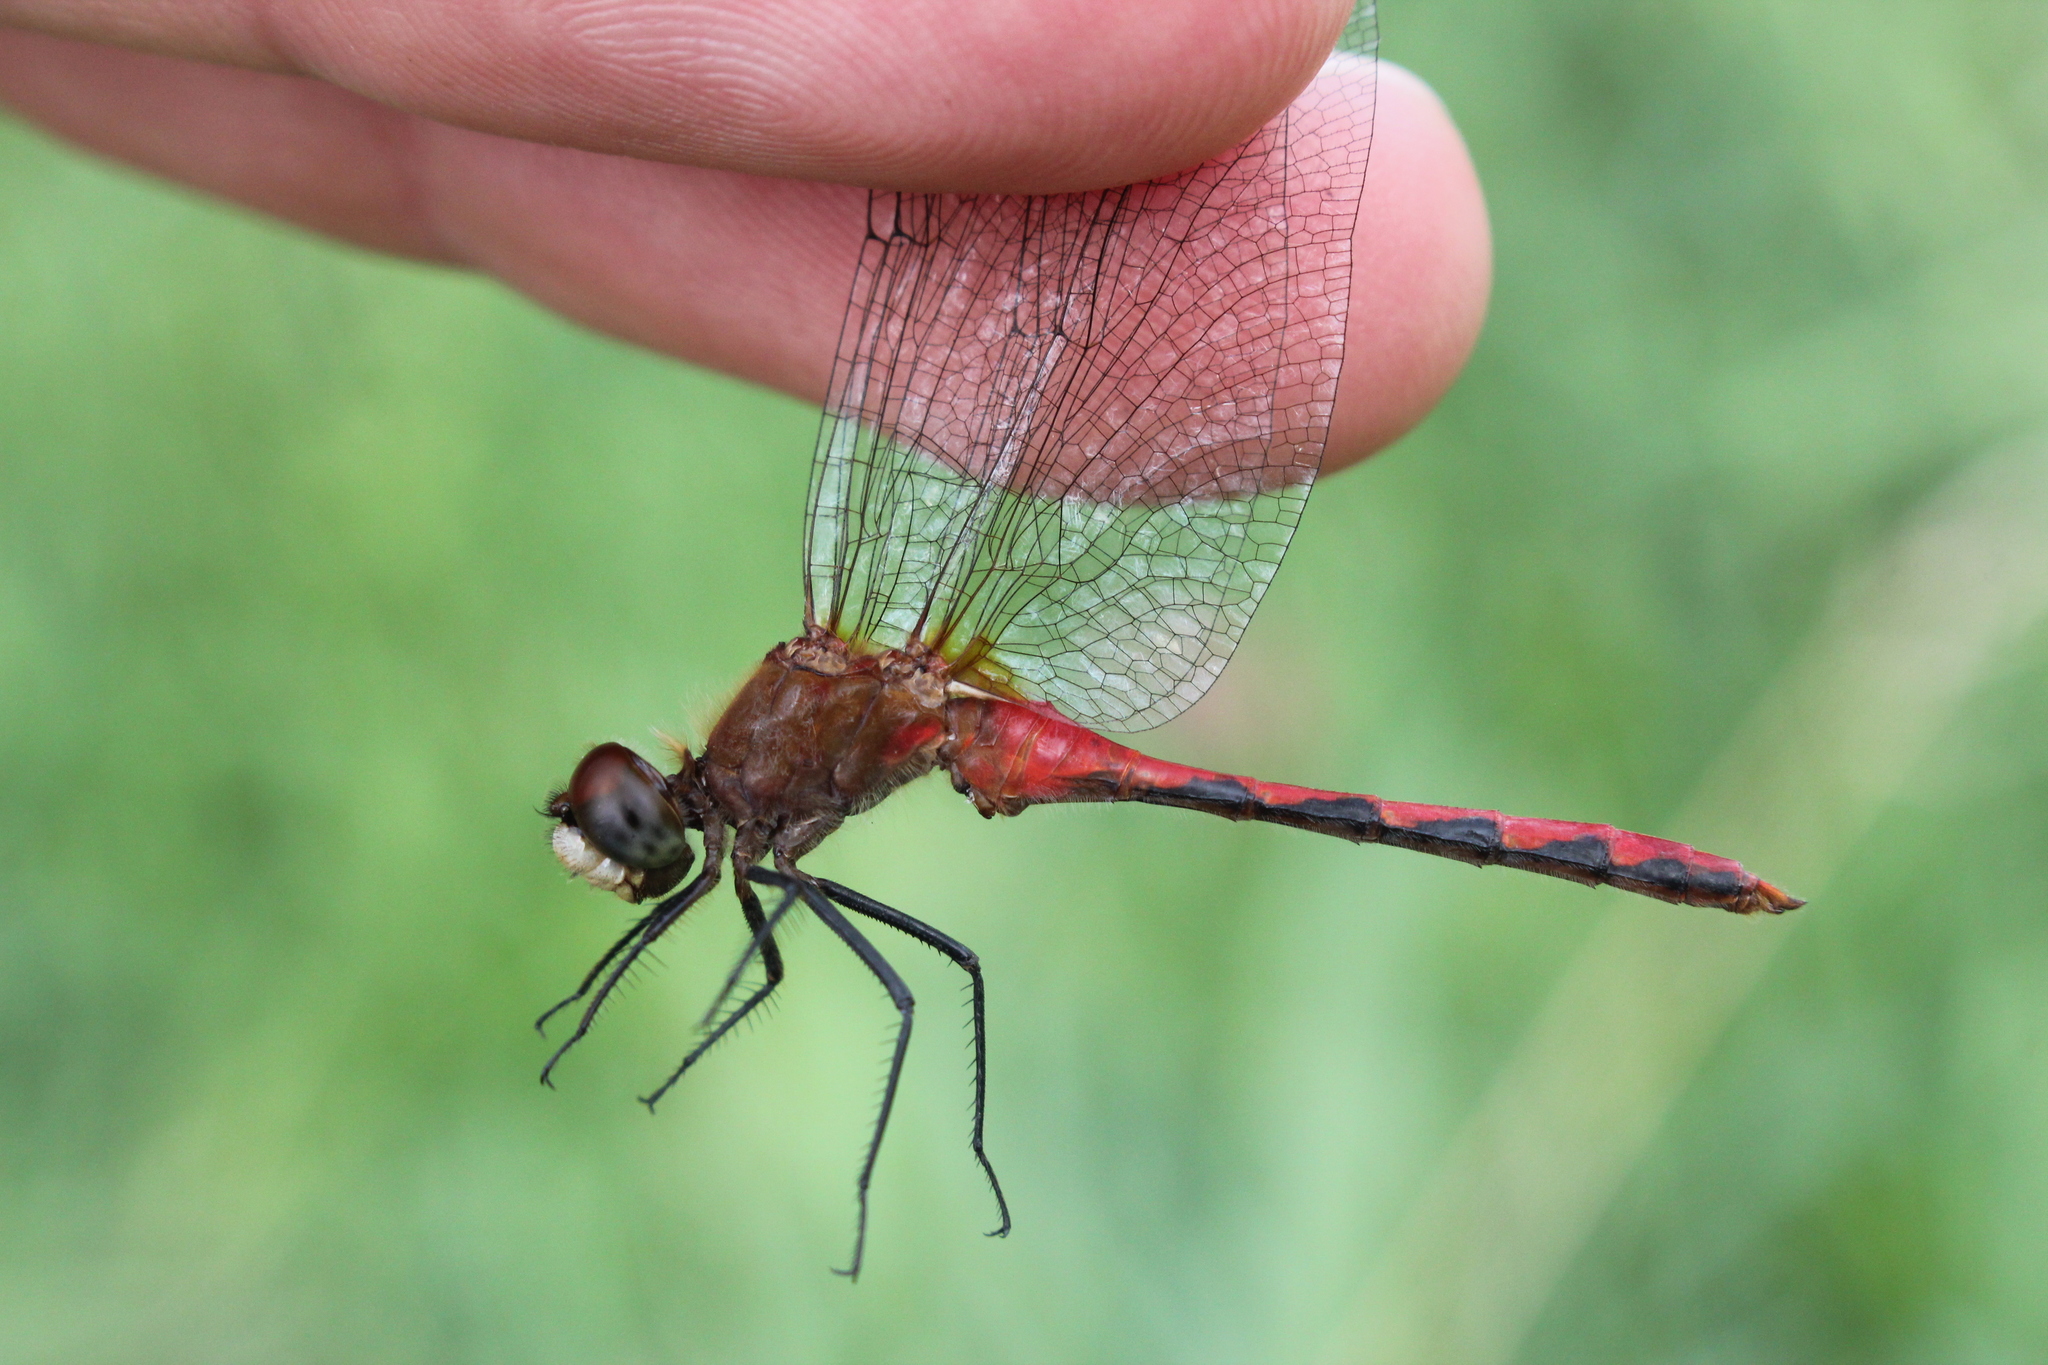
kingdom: Animalia
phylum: Arthropoda
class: Insecta
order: Odonata
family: Libellulidae
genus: Sympetrum
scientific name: Sympetrum obtrusum
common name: White-faced meadowhawk
